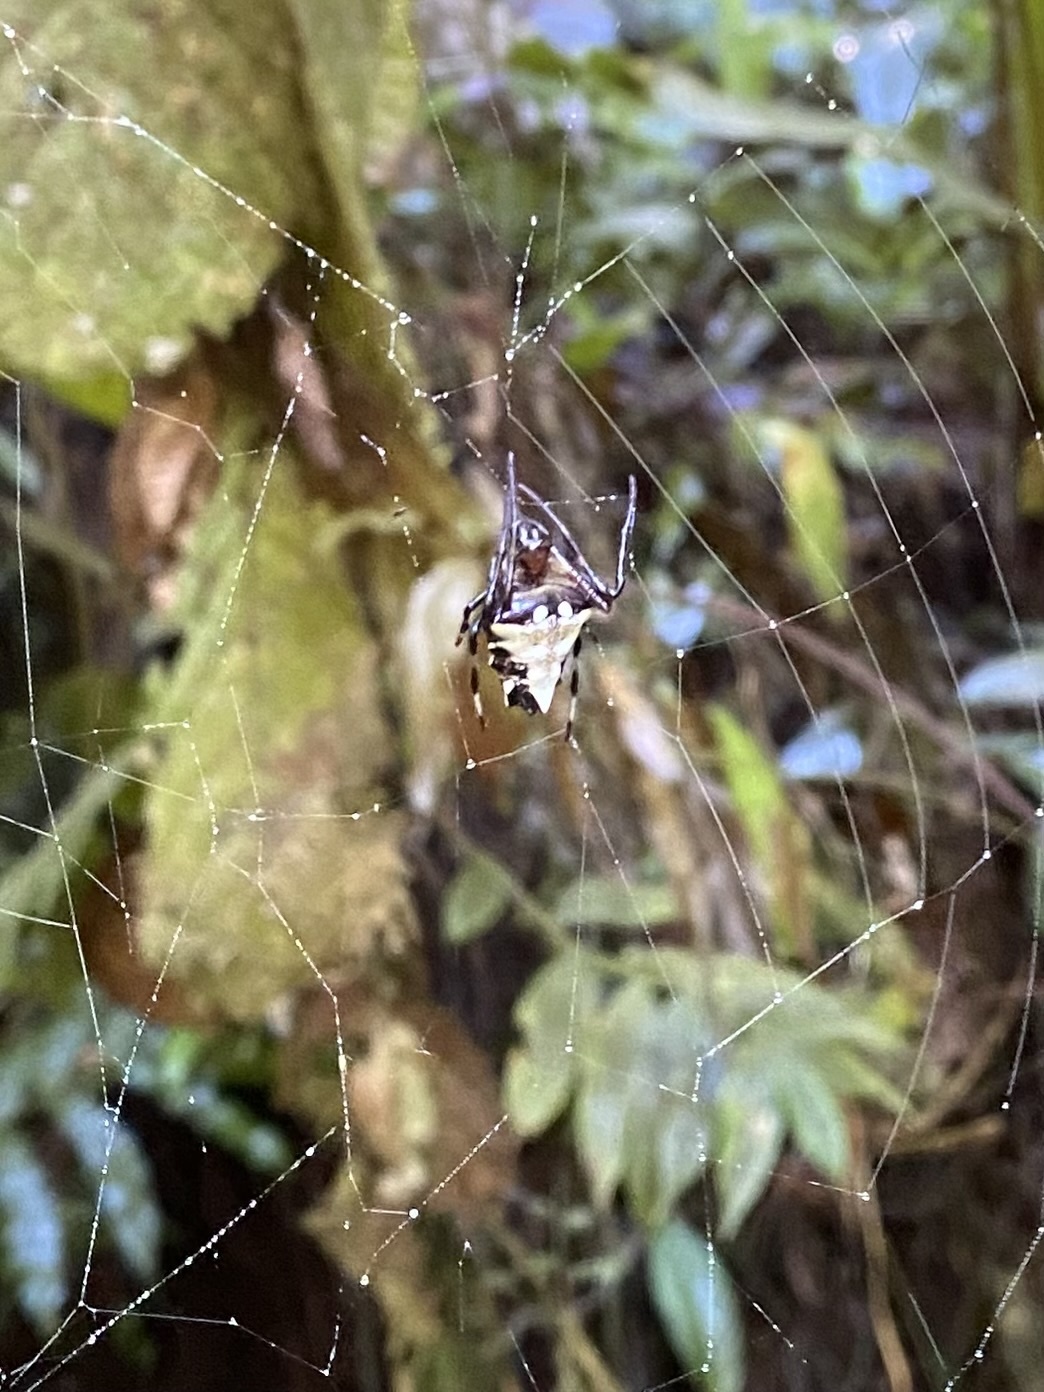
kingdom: Animalia
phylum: Arthropoda
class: Arachnida
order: Araneae
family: Araneidae
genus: Verrucosa
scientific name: Verrucosa arenata
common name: Orb weavers
